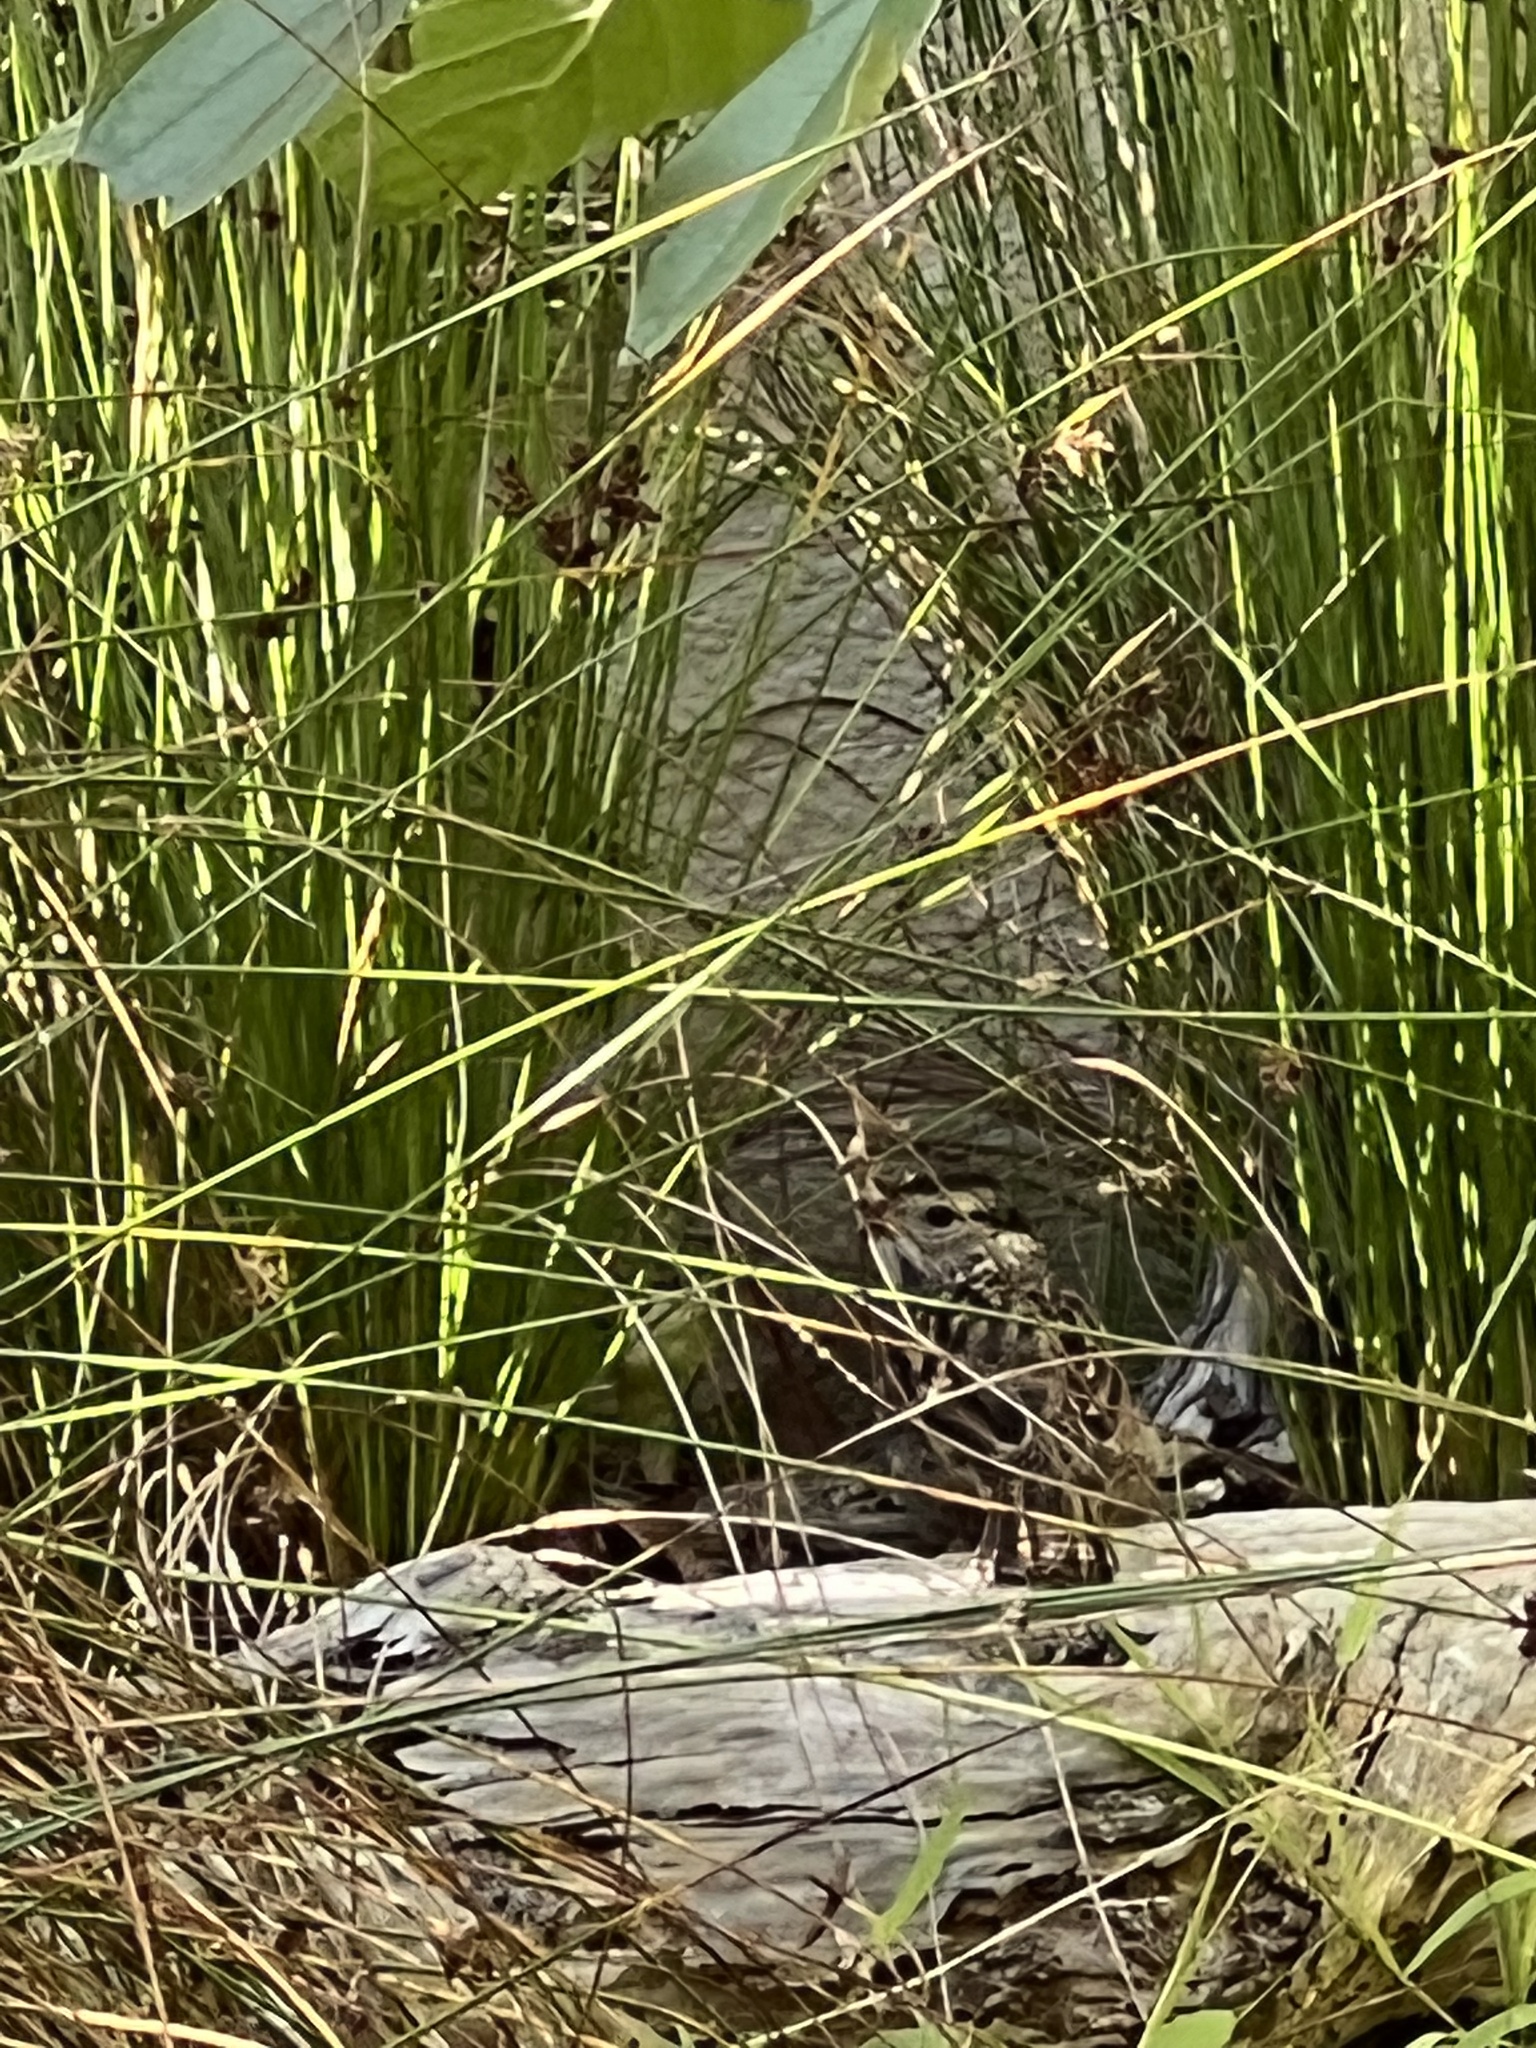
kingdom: Animalia
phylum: Chordata
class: Aves
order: Passeriformes
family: Passerellidae
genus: Zonotrichia
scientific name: Zonotrichia leucophrys
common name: White-crowned sparrow
